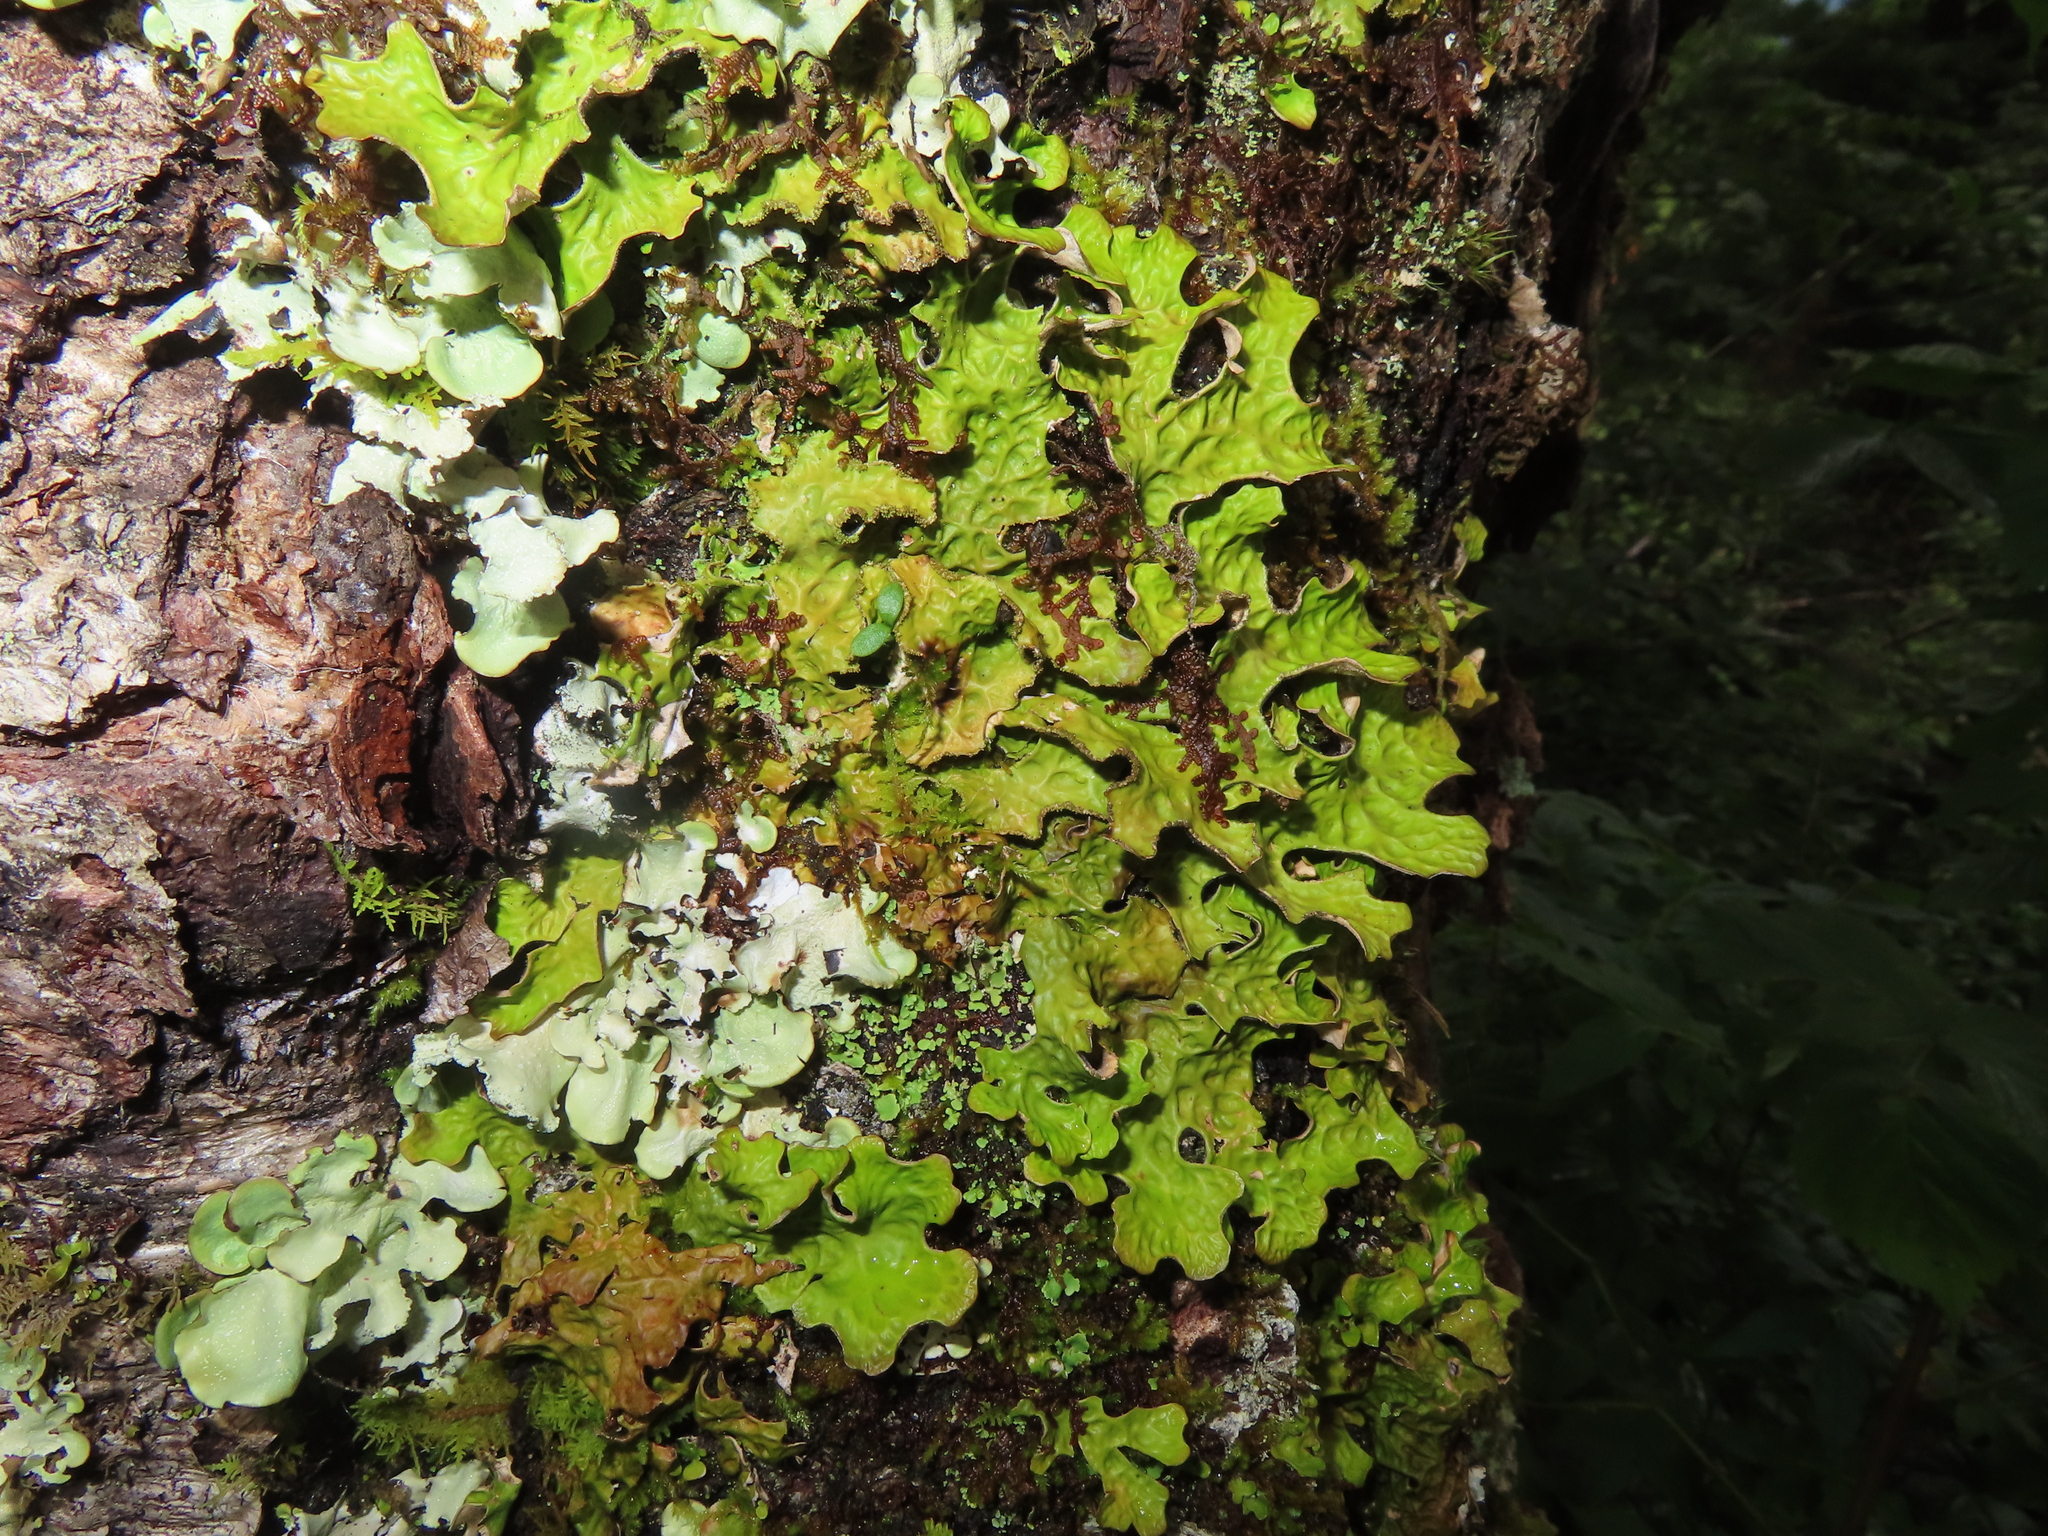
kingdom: Fungi
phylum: Ascomycota
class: Lecanoromycetes
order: Peltigerales
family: Lobariaceae
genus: Lobaria
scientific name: Lobaria pulmonaria
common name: Lungwort
